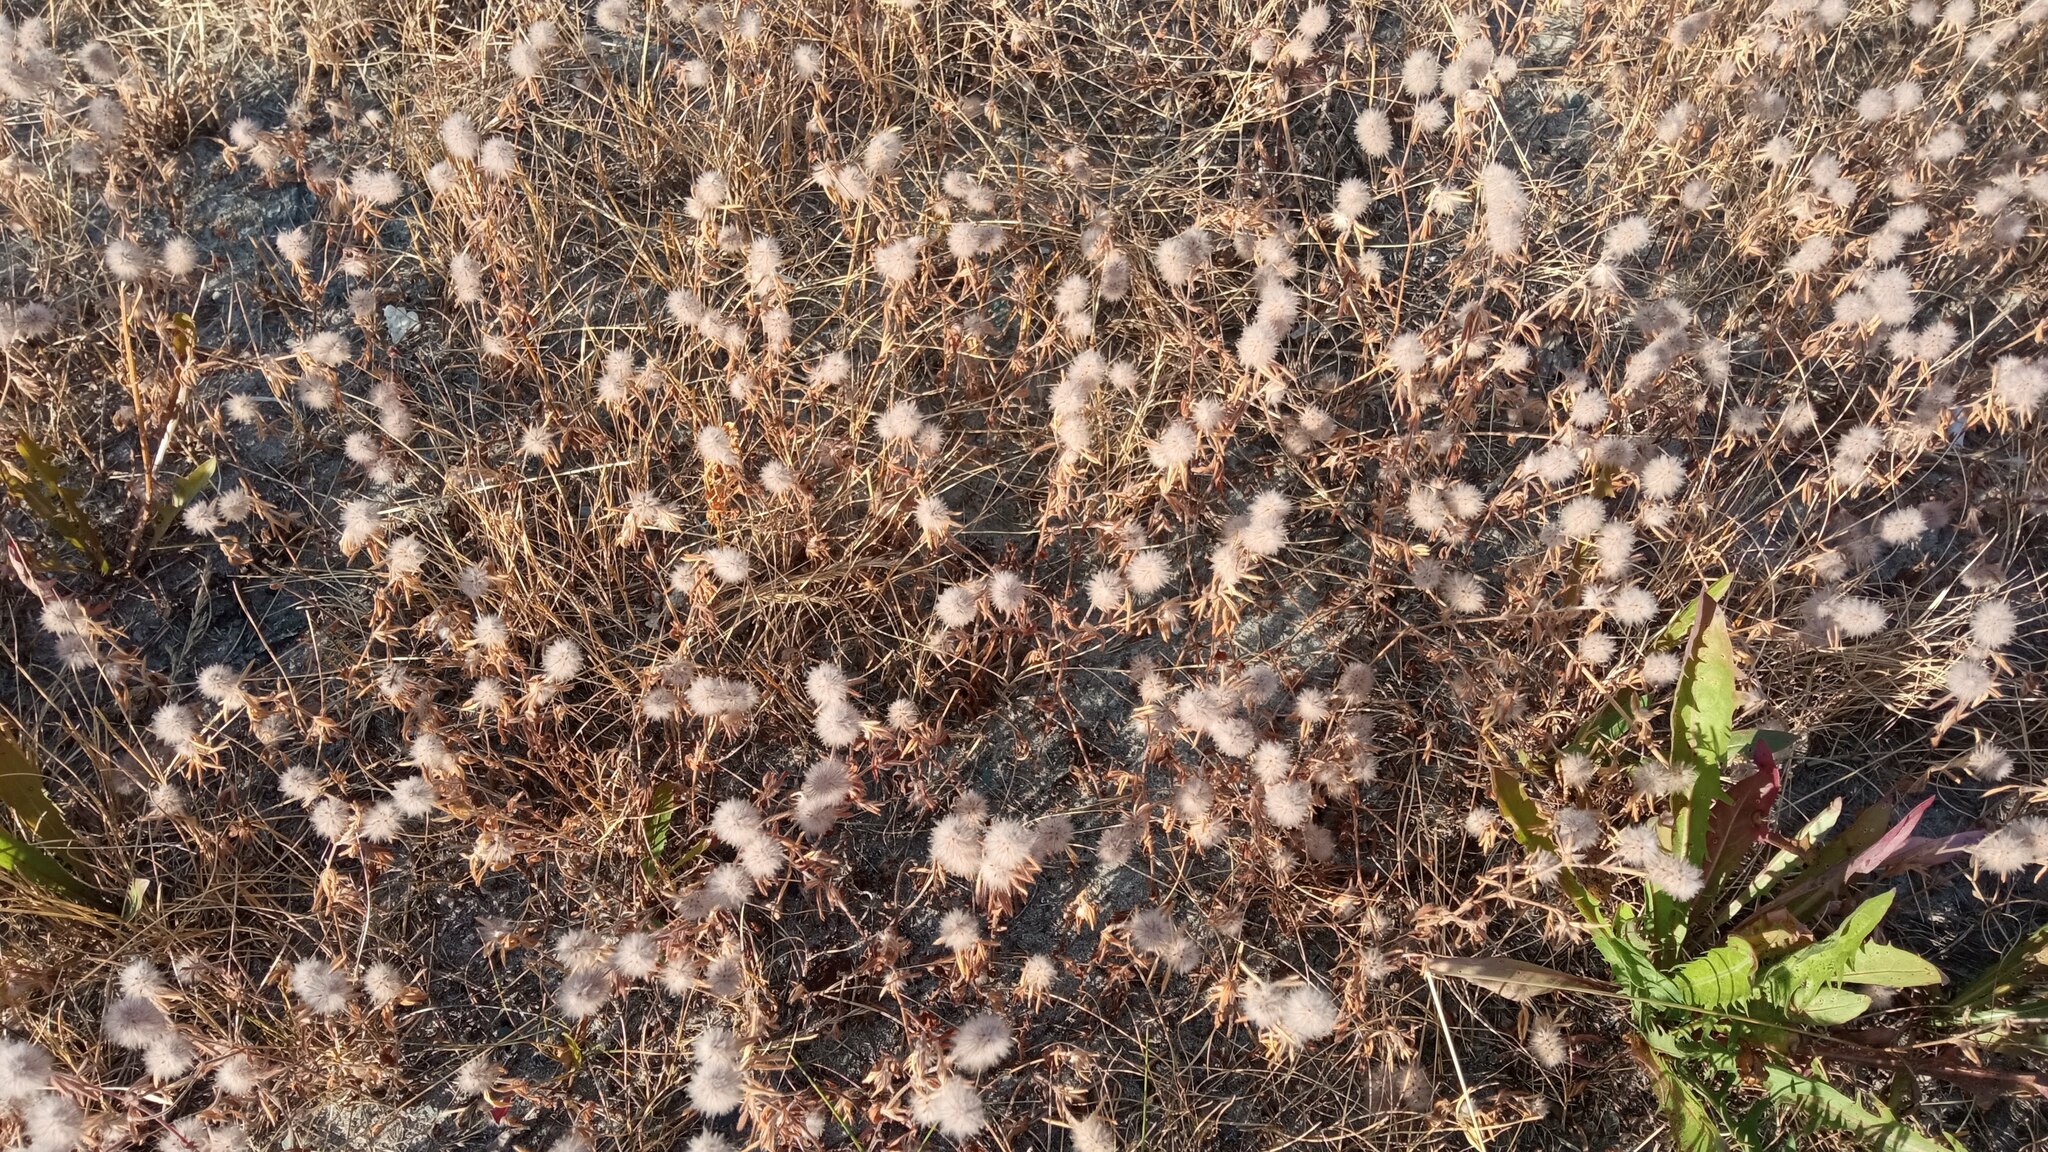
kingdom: Plantae
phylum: Tracheophyta
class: Magnoliopsida
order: Fabales
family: Fabaceae
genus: Trifolium
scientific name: Trifolium arvense
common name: Hare's-foot clover
